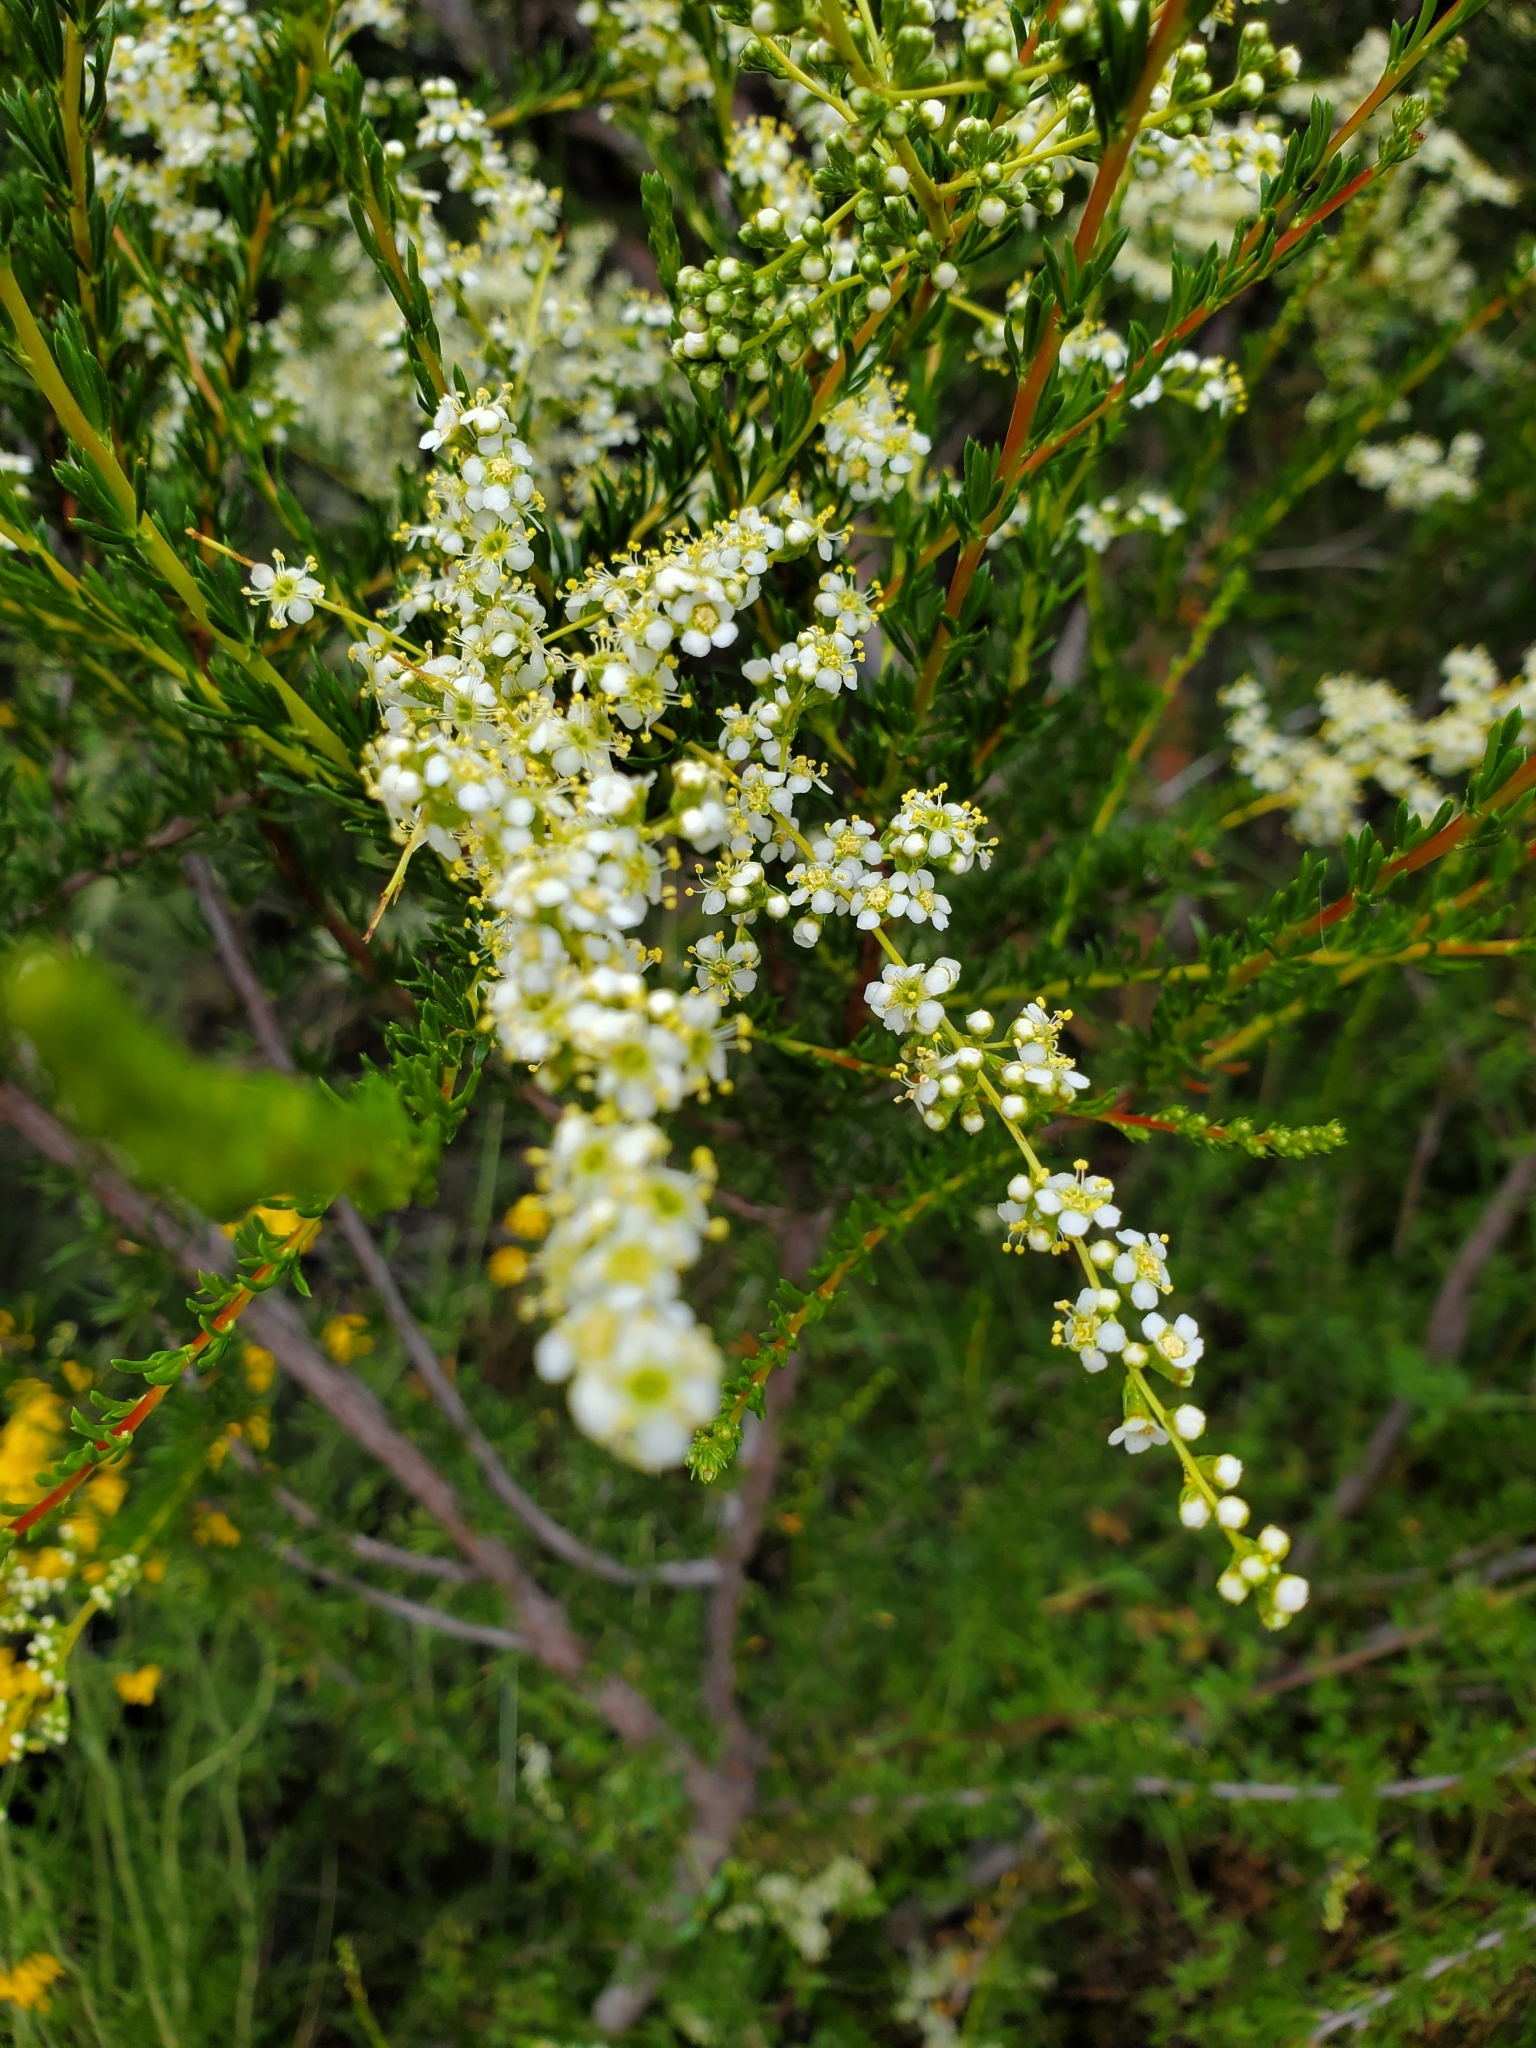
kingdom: Plantae
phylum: Tracheophyta
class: Magnoliopsida
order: Rosales
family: Rosaceae
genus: Adenostoma
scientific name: Adenostoma fasciculatum
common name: Chamise
